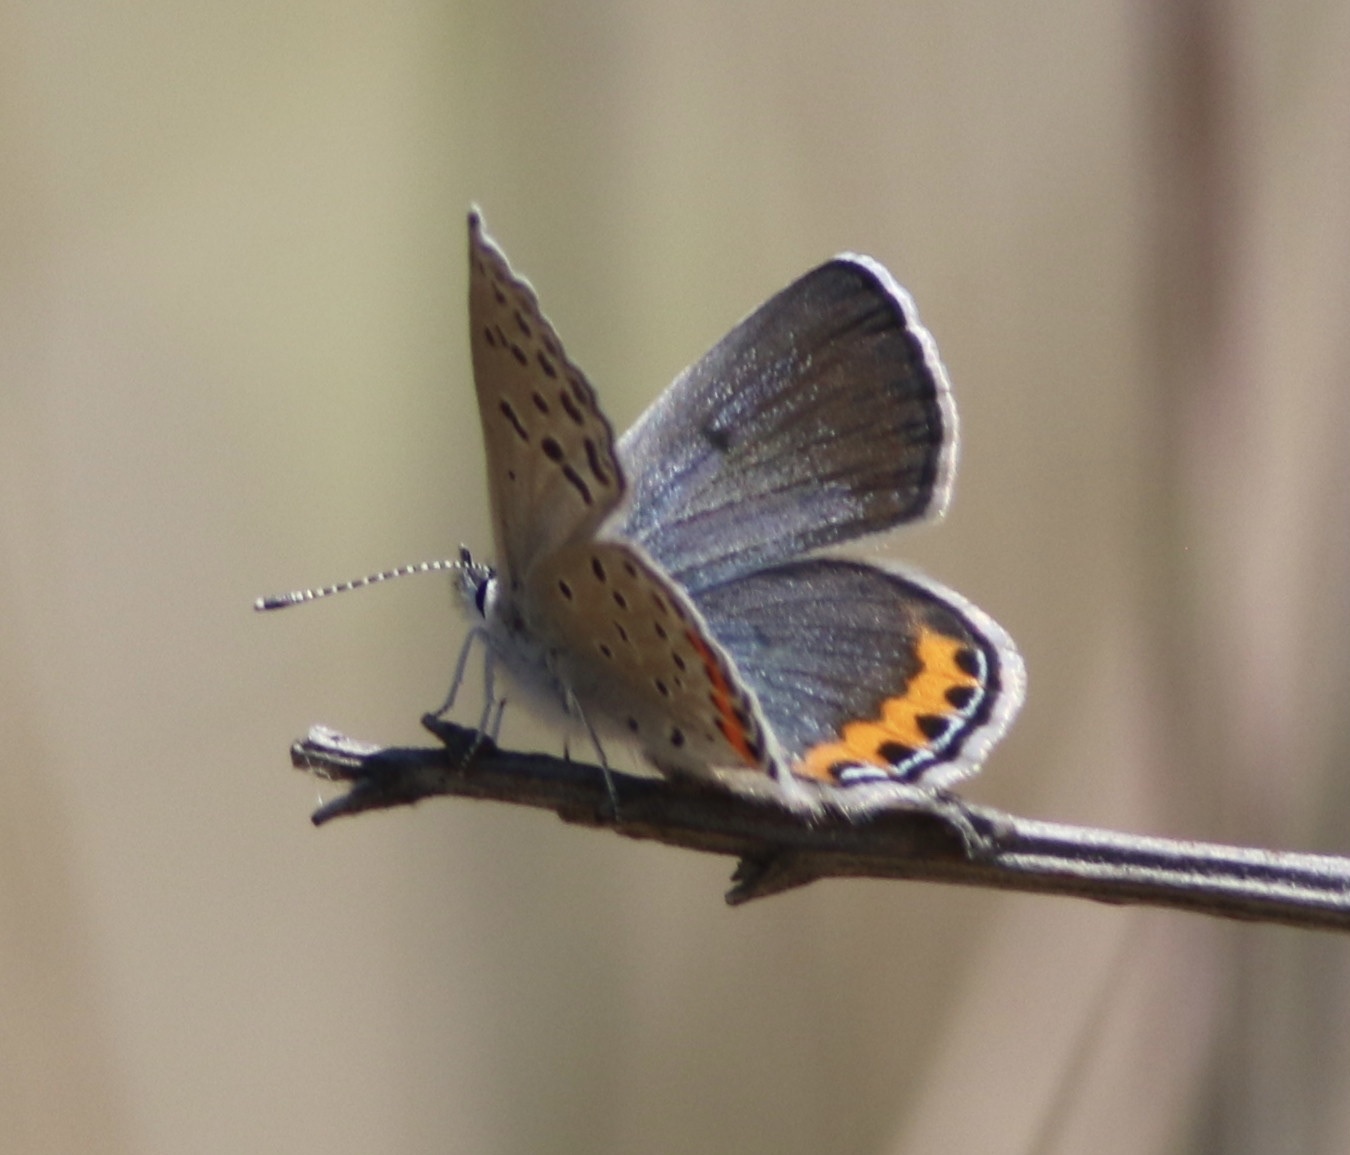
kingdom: Animalia
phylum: Arthropoda
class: Insecta
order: Lepidoptera
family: Lycaenidae
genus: Icaricia
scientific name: Icaricia acmon
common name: Acmon blue
